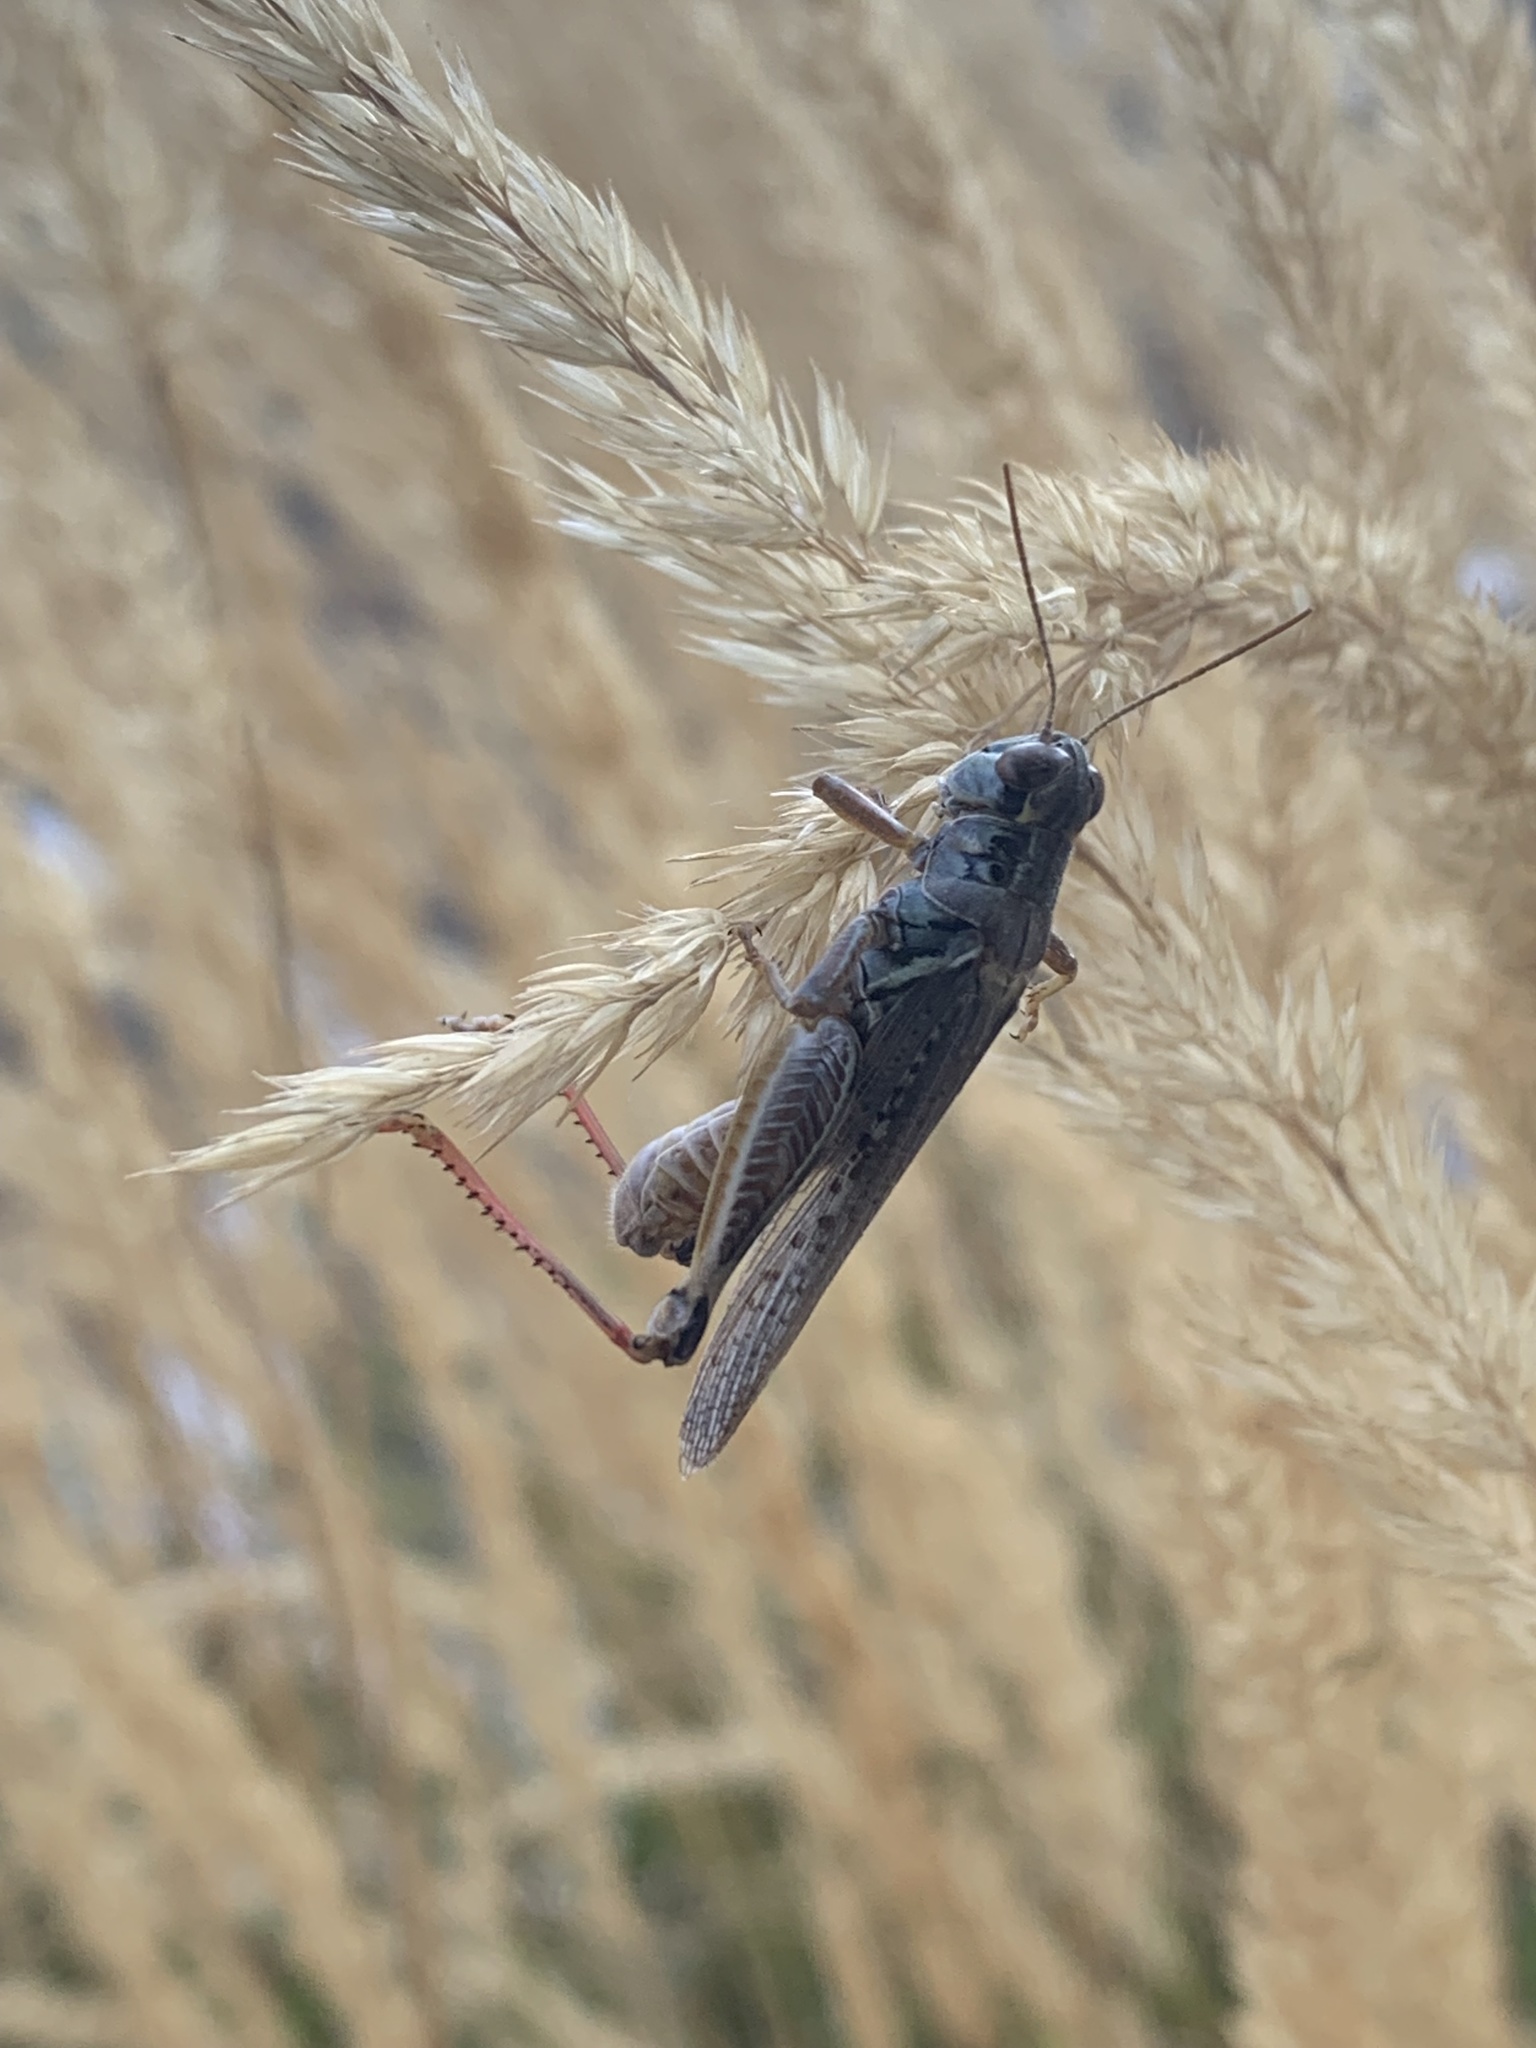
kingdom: Animalia
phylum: Arthropoda
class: Insecta
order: Orthoptera
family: Acrididae
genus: Melanoplus
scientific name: Melanoplus sanguinipes
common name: Migratory grasshopper
